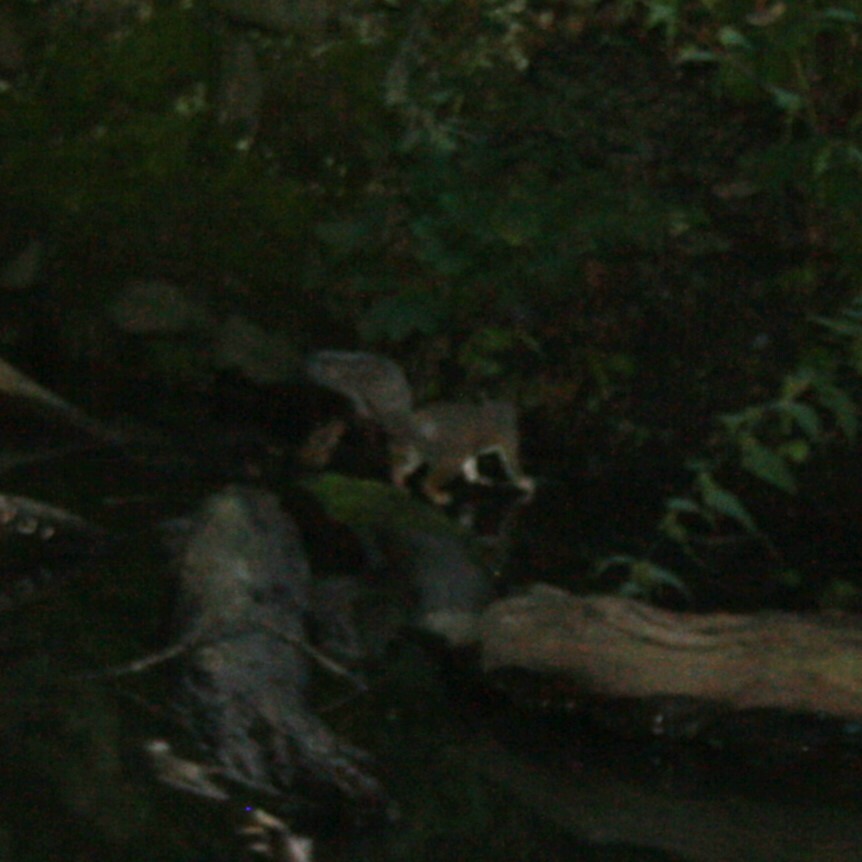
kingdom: Animalia
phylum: Chordata
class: Mammalia
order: Rodentia
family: Sciuridae
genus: Sciurus
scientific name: Sciurus carolinensis
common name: Eastern gray squirrel
